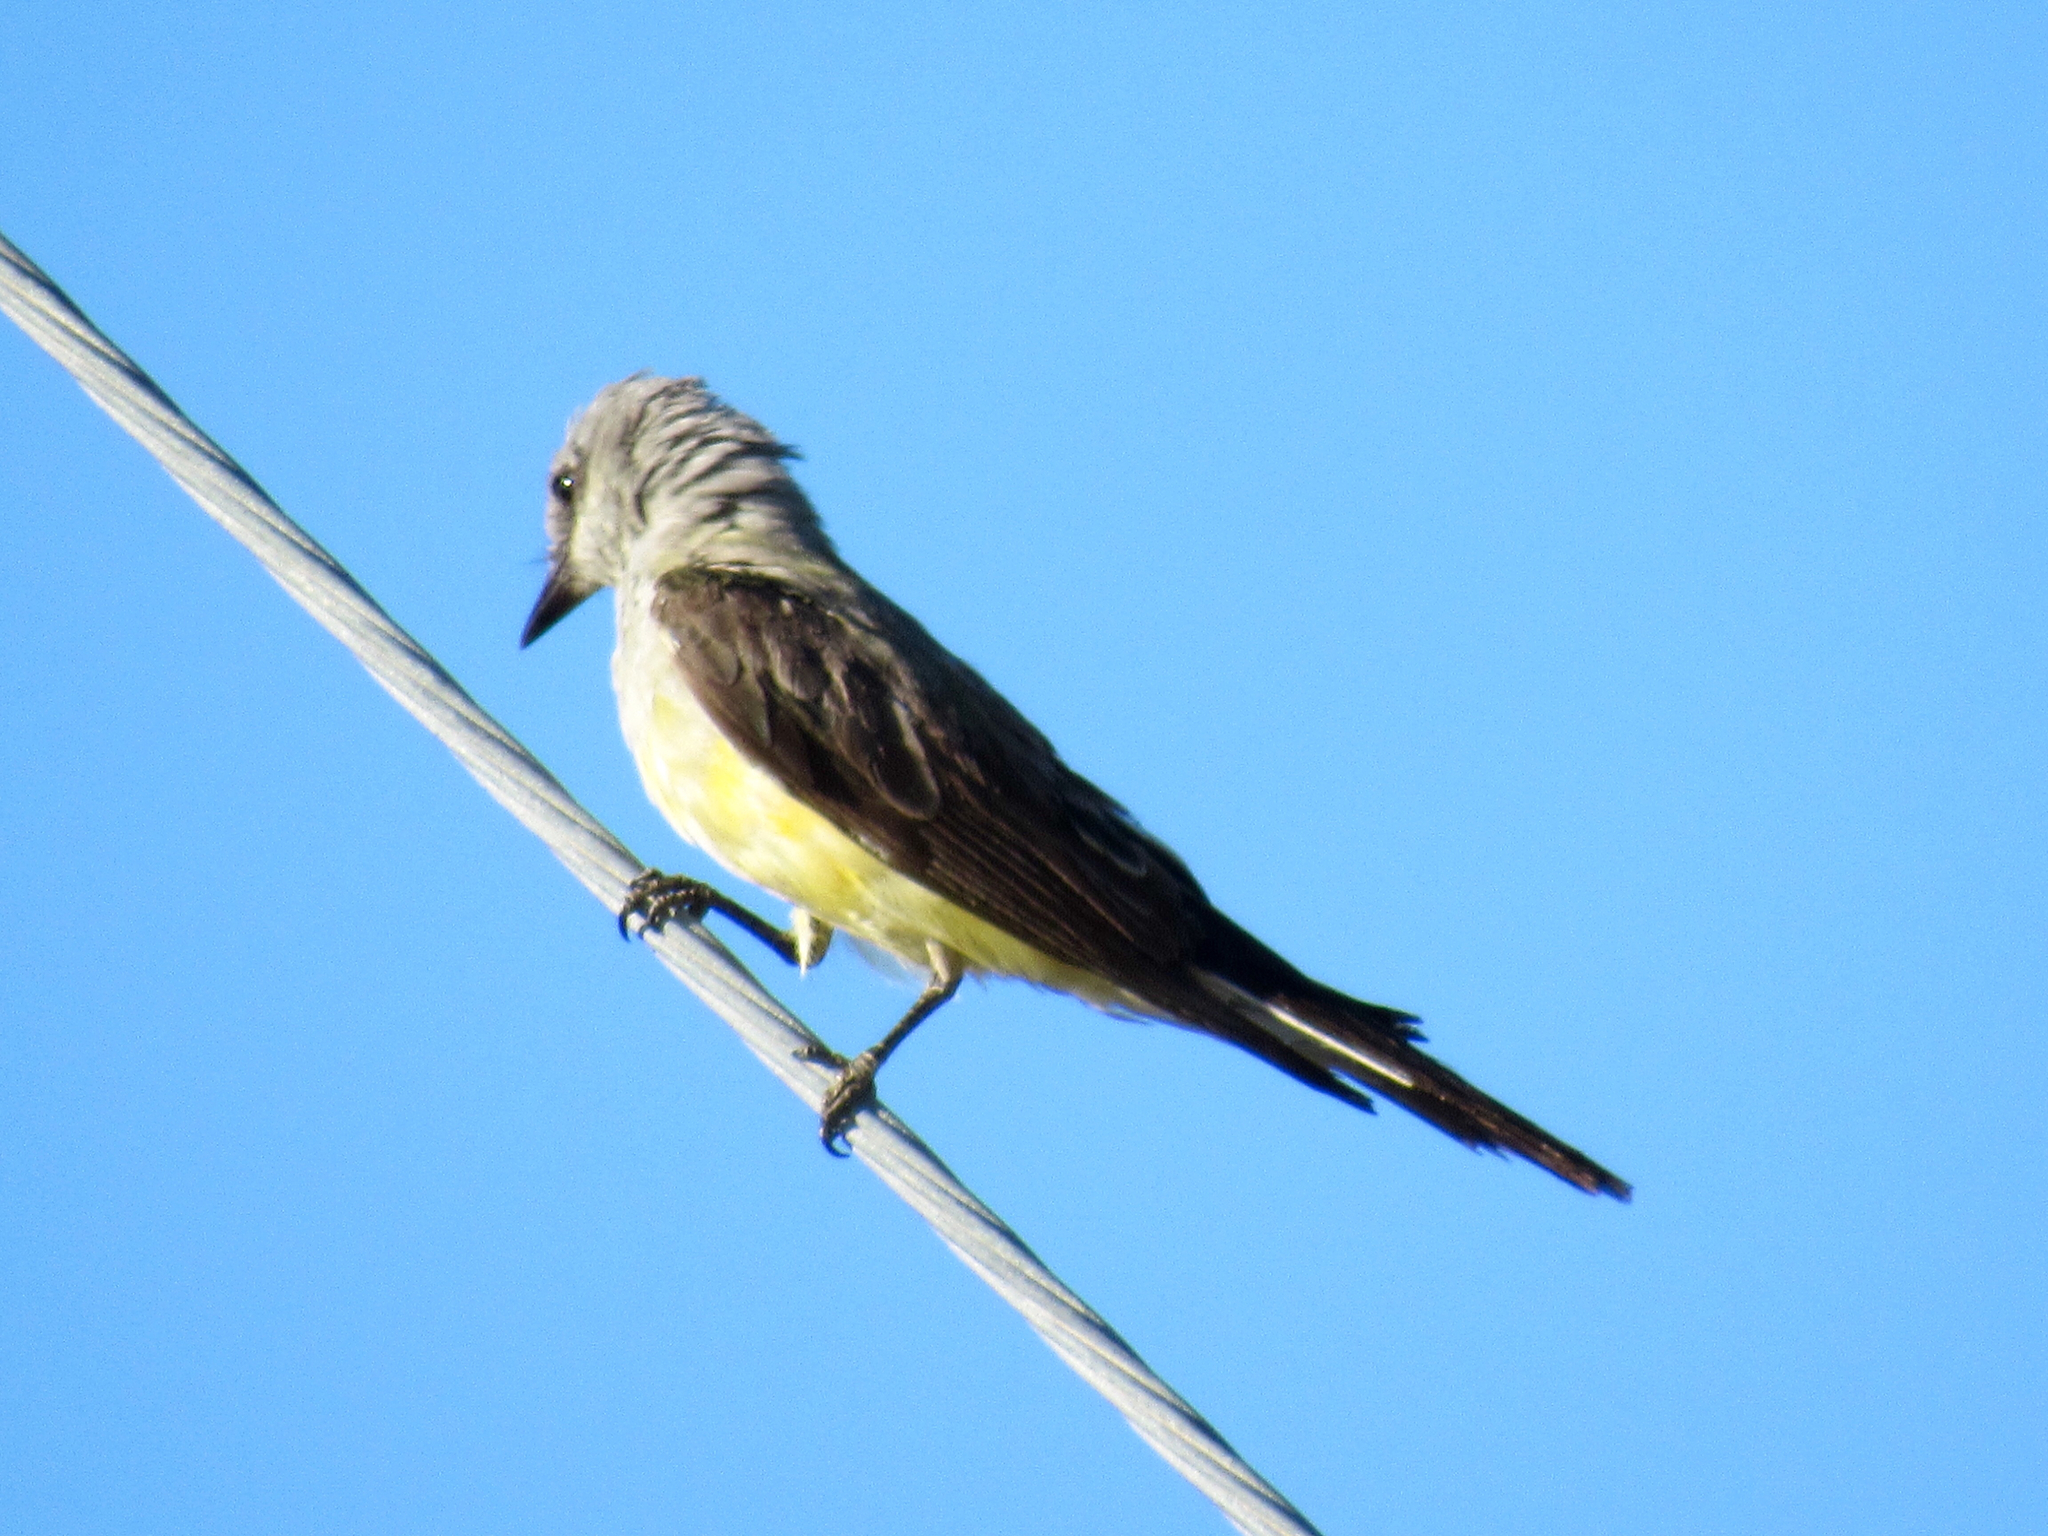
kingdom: Animalia
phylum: Chordata
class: Aves
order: Passeriformes
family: Tyrannidae
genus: Tyrannus
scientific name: Tyrannus verticalis
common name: Western kingbird
